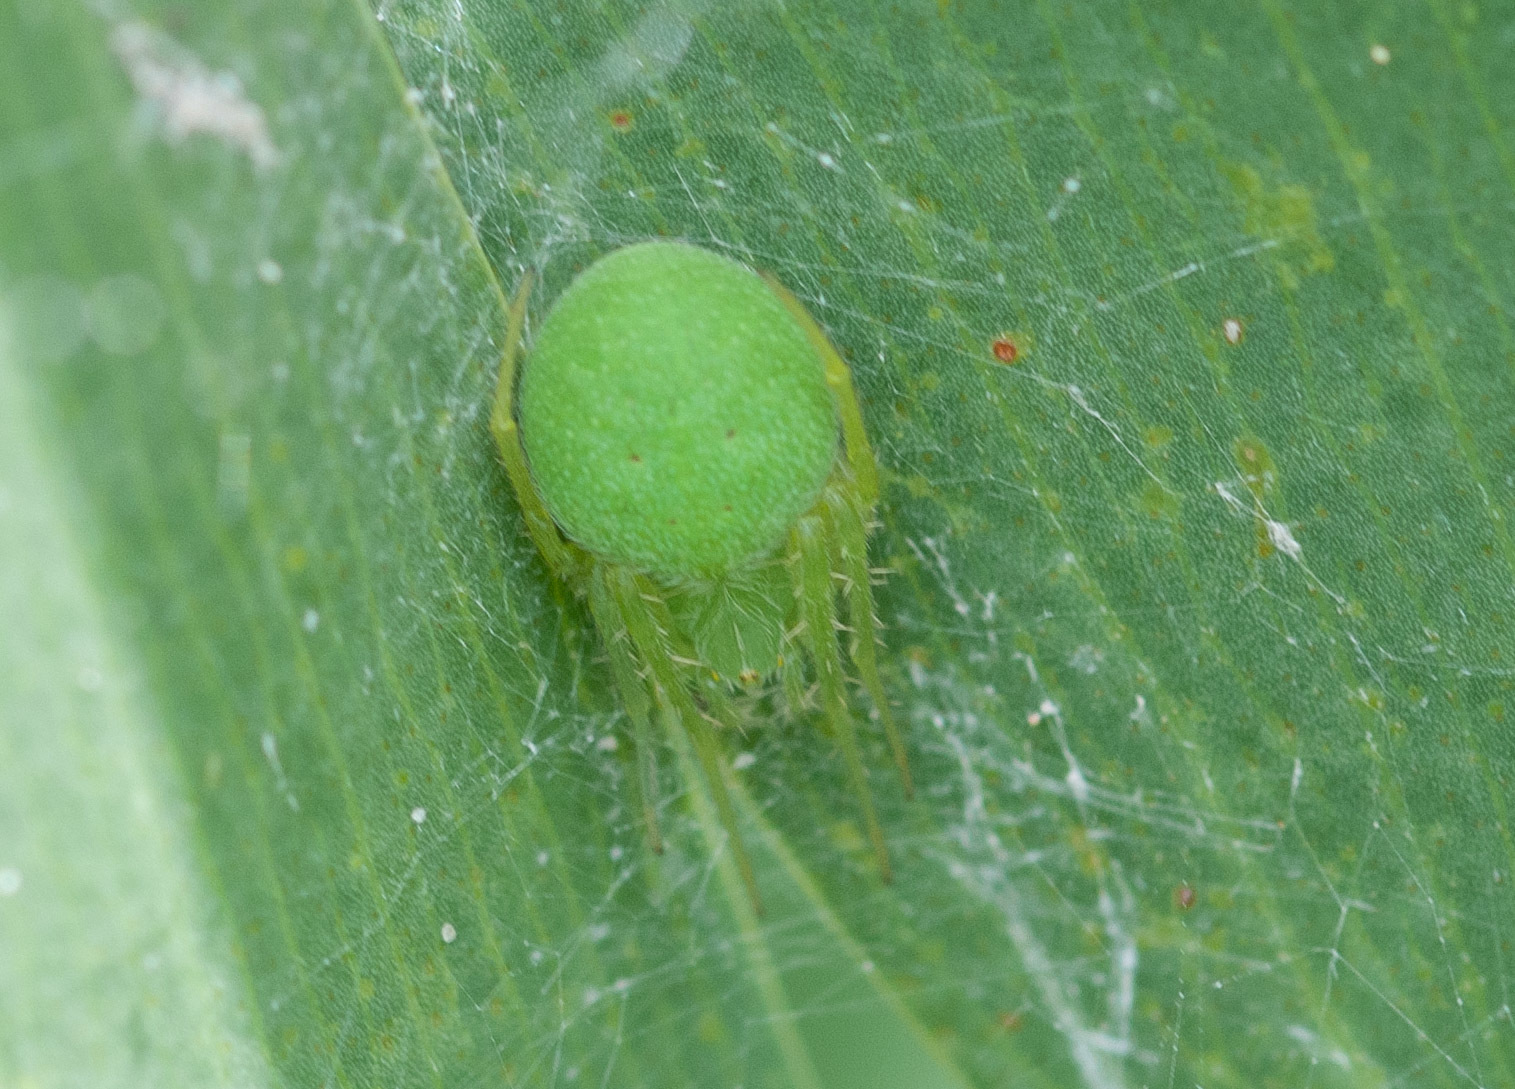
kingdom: Animalia
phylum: Arthropoda
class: Arachnida
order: Araneae
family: Araneidae
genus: Araneus
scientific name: Araneus circulissparsus
